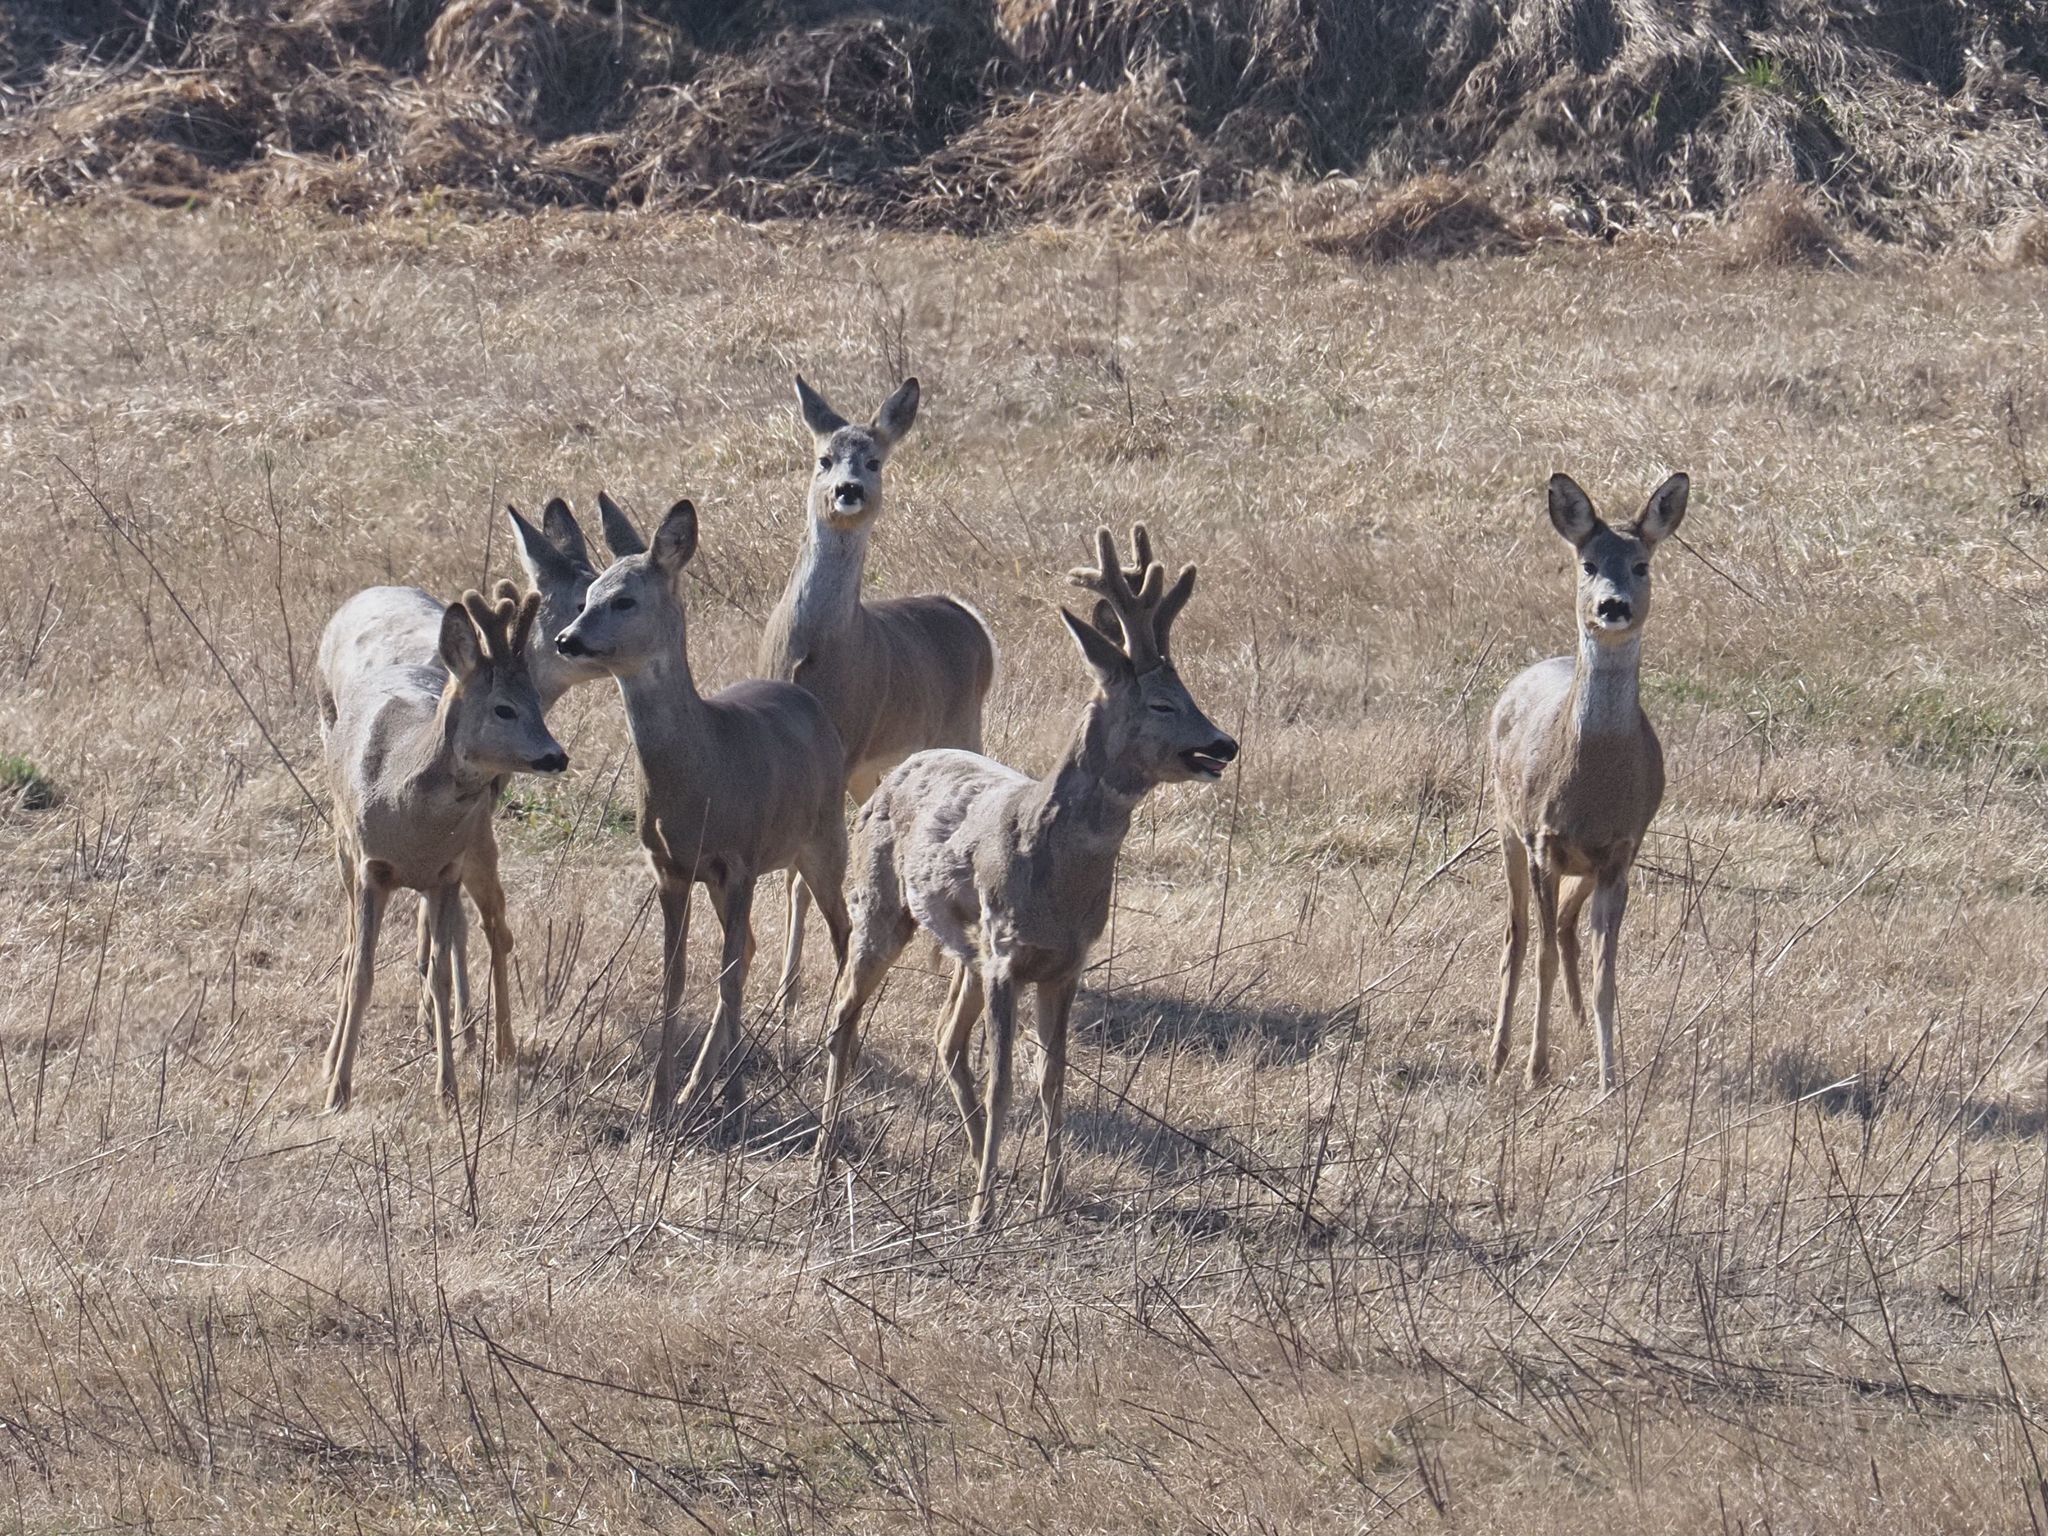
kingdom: Animalia
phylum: Chordata
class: Mammalia
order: Artiodactyla
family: Cervidae
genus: Capreolus
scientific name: Capreolus capreolus
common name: Western roe deer
